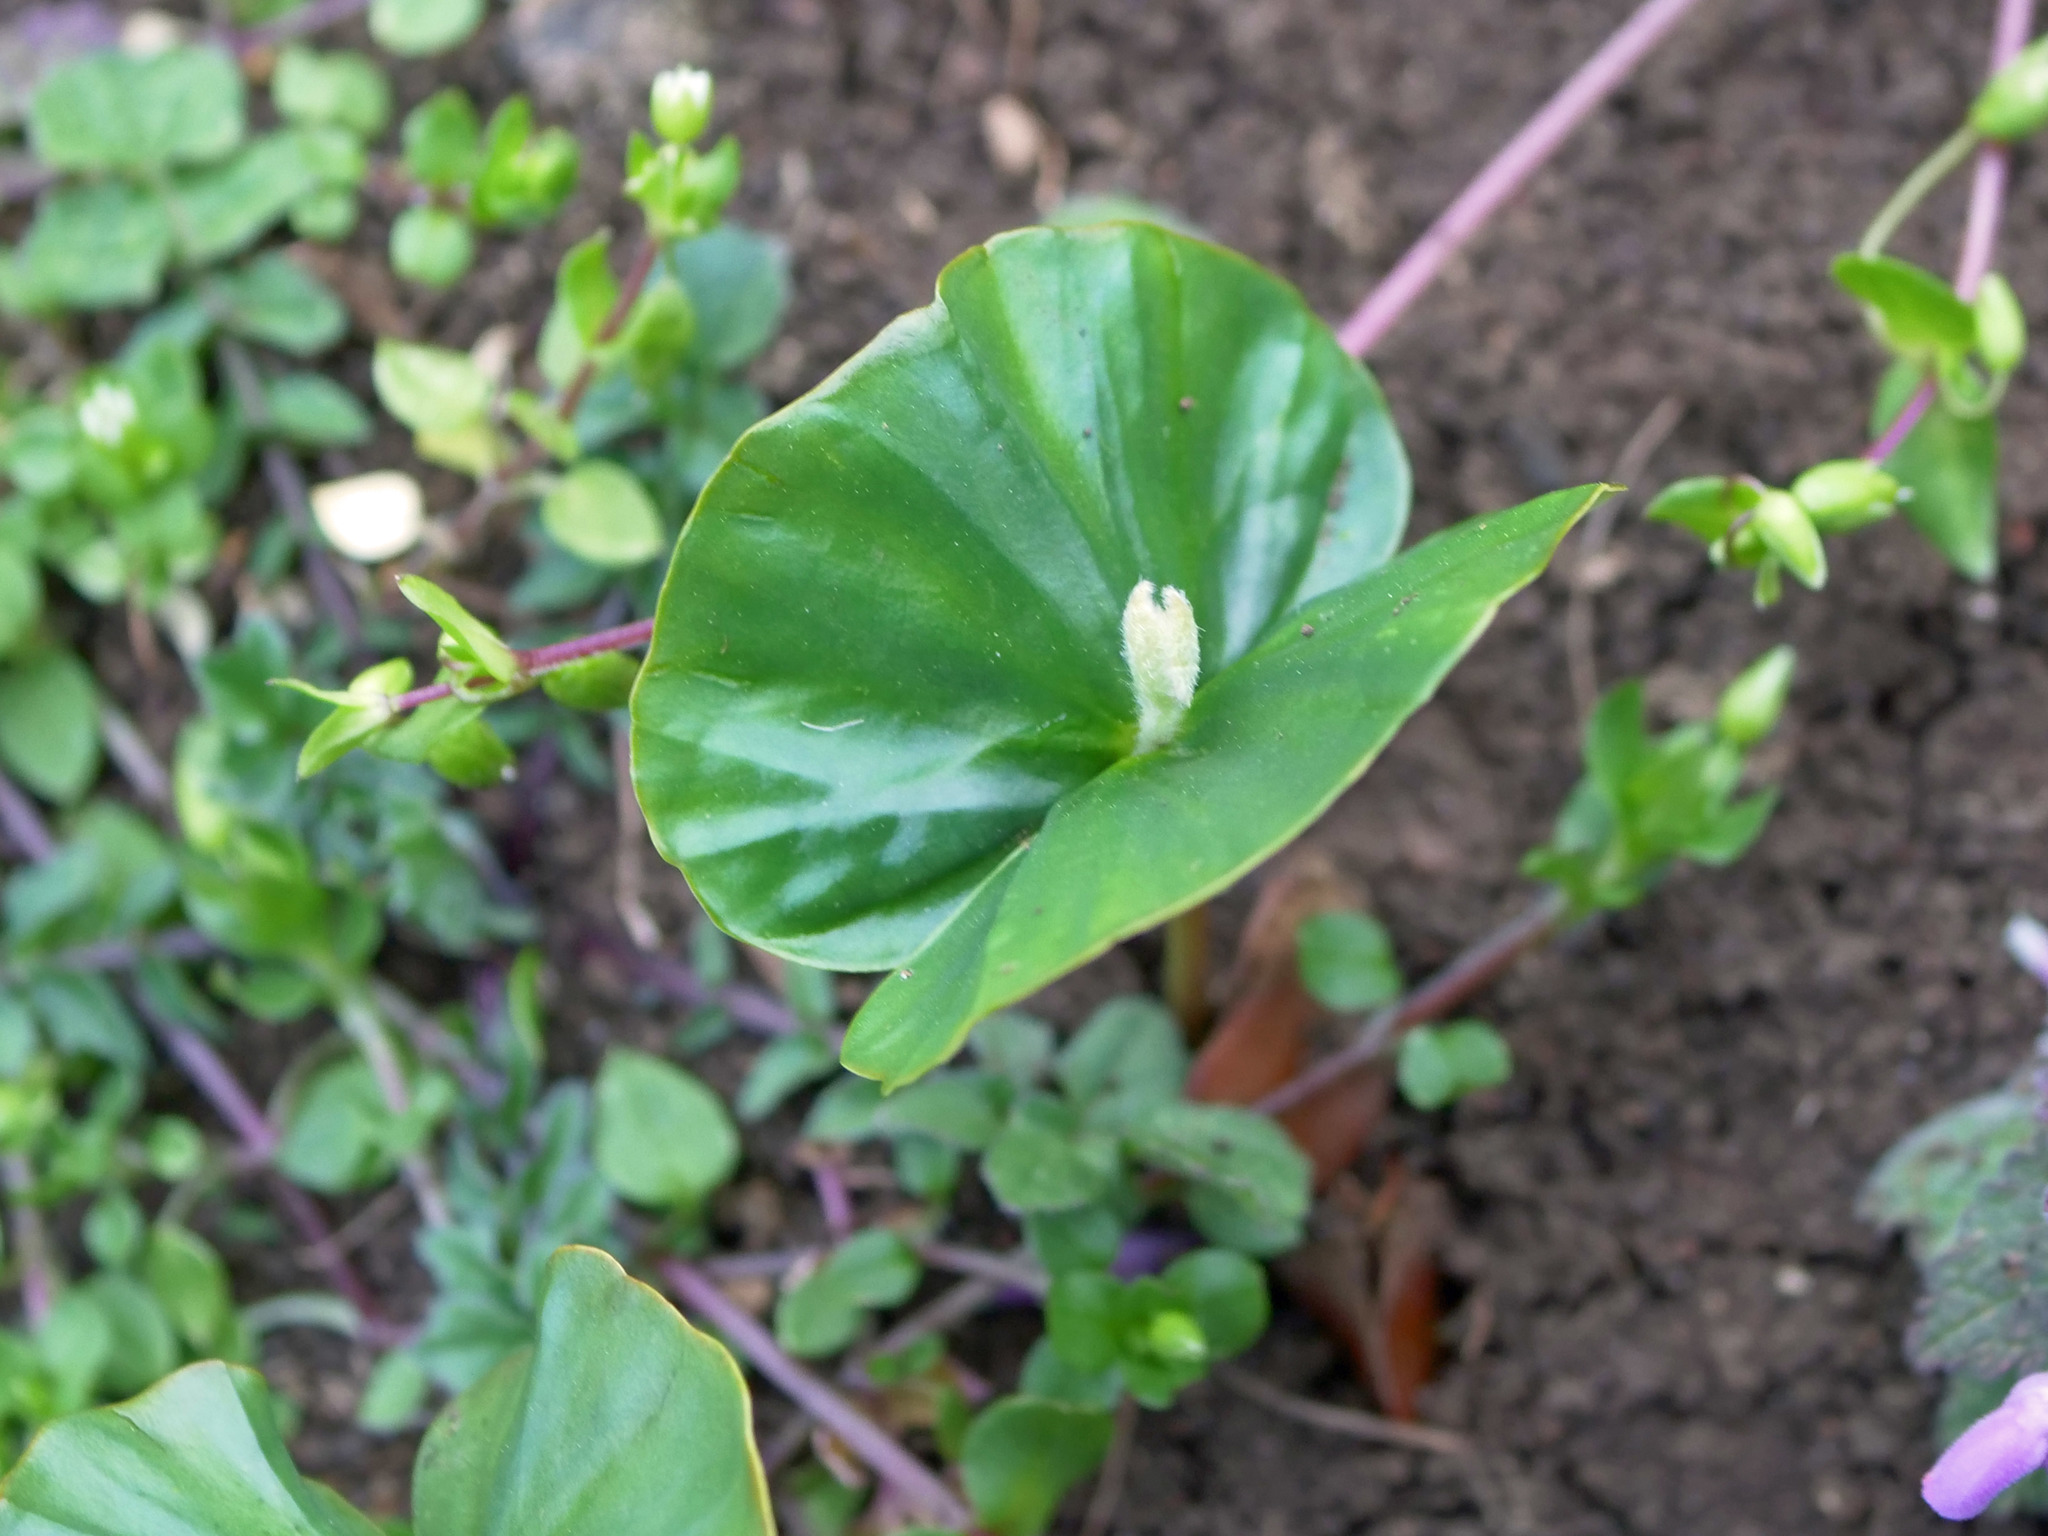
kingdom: Plantae
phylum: Tracheophyta
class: Magnoliopsida
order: Fagales
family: Fagaceae
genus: Fagus
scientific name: Fagus sylvatica
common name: Beech
